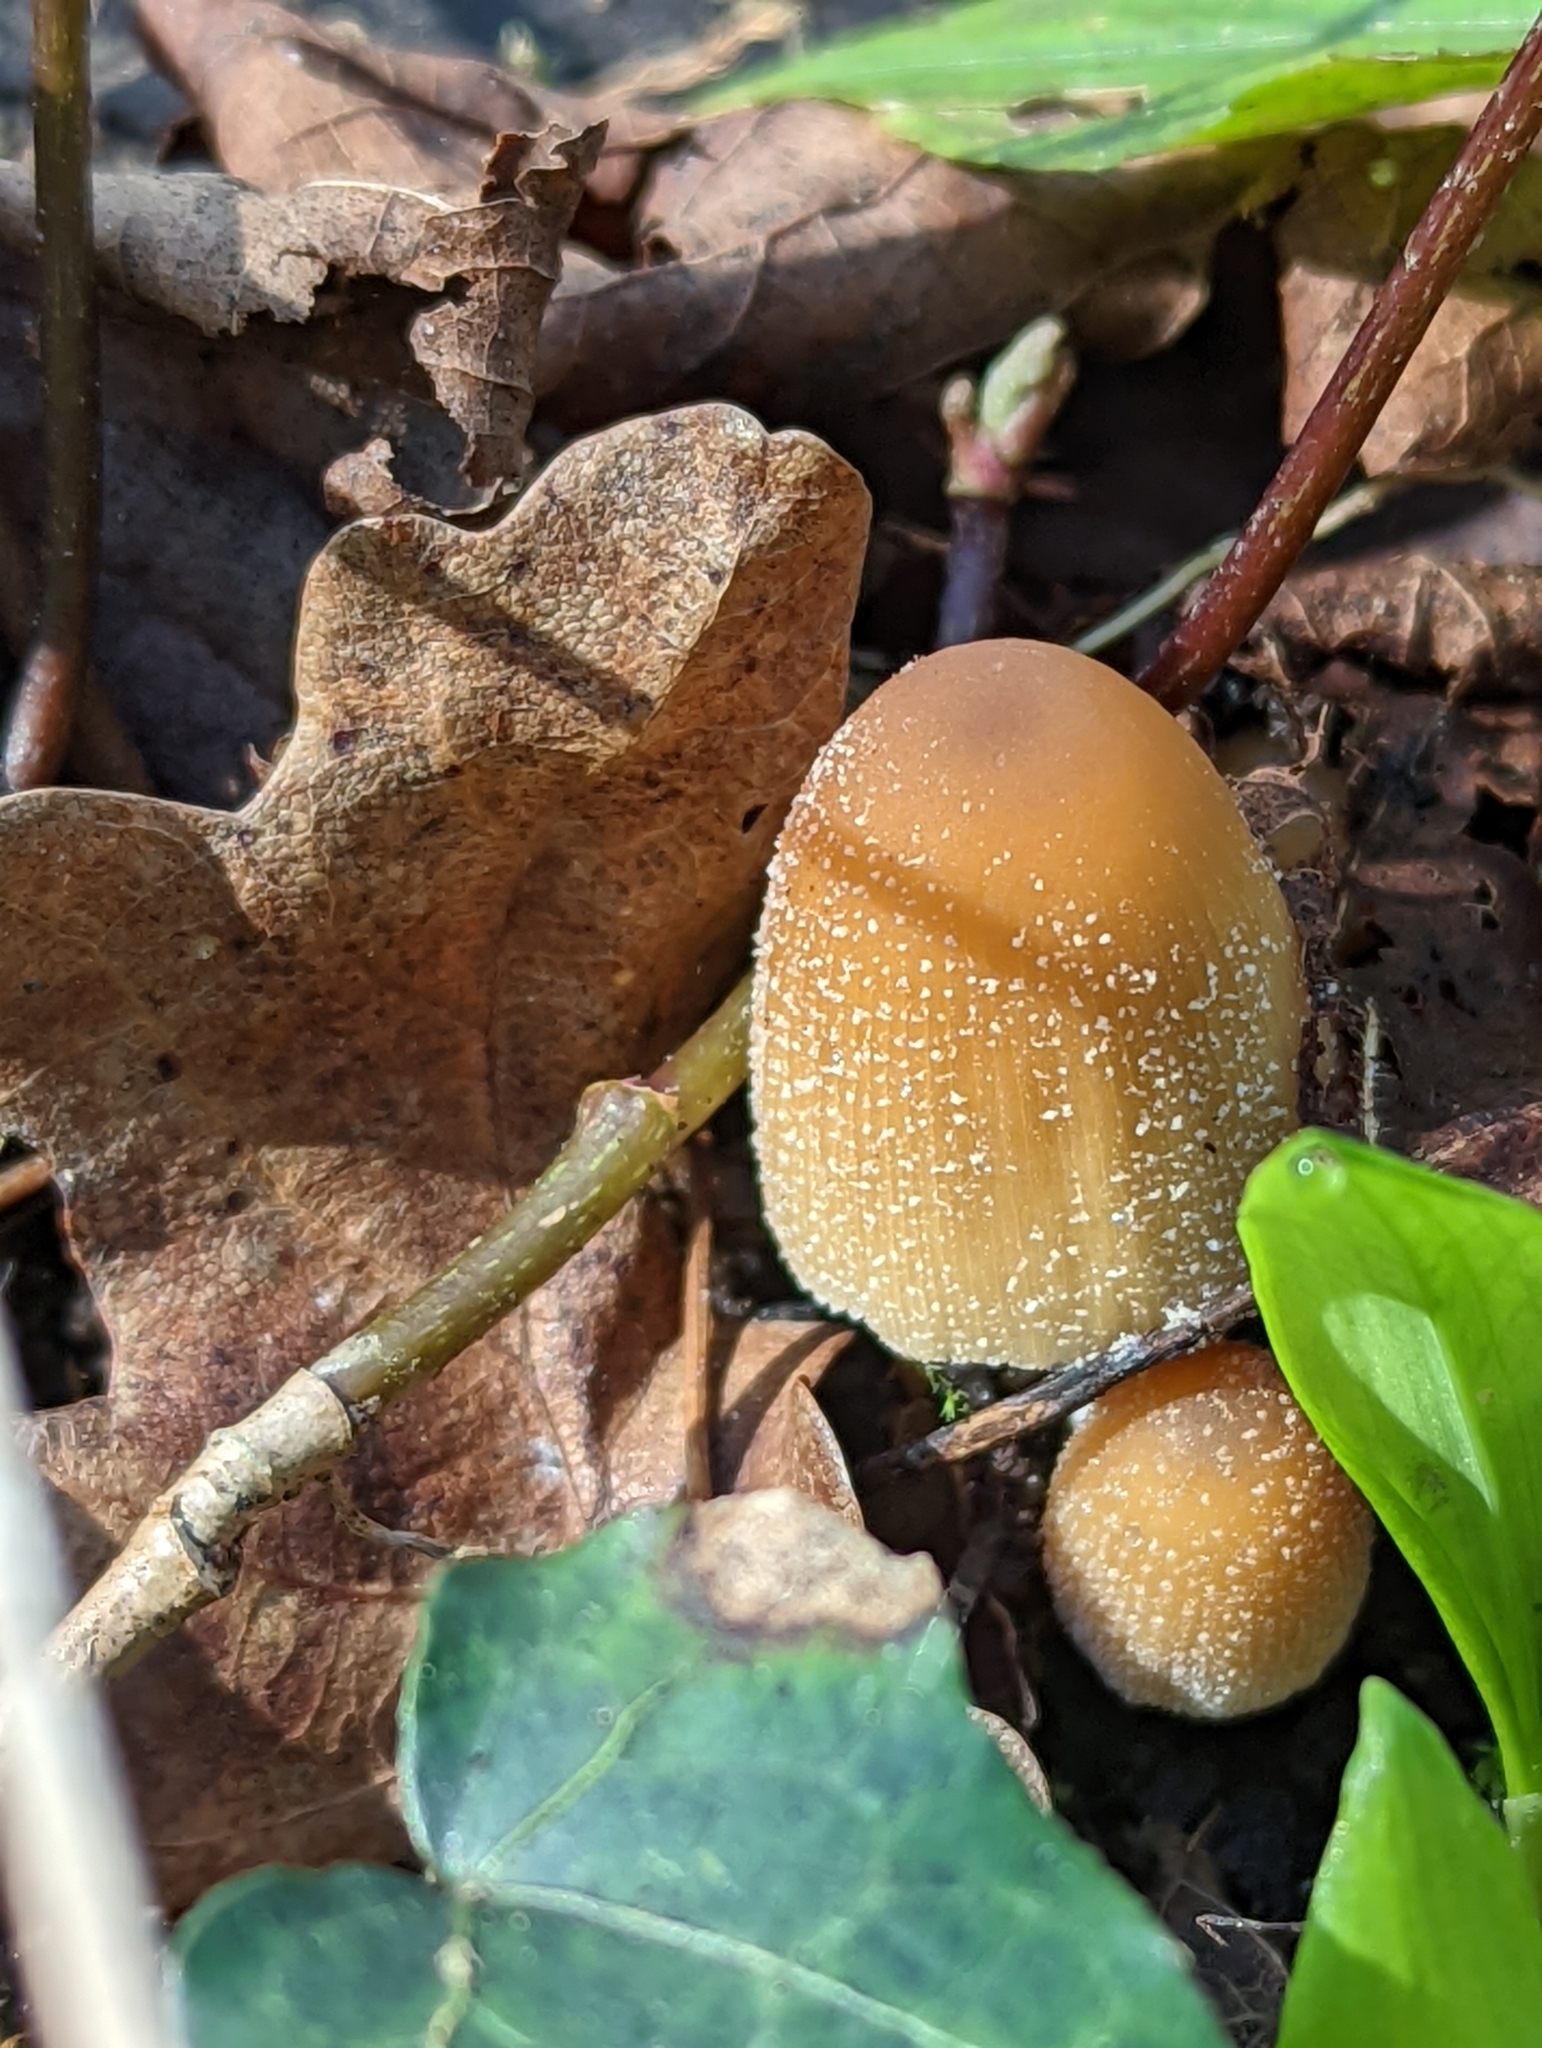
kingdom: Fungi
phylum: Basidiomycota
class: Agaricomycetes
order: Agaricales
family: Psathyrellaceae
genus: Coprinellus
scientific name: Coprinellus micaceus
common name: Glistening ink-cap
